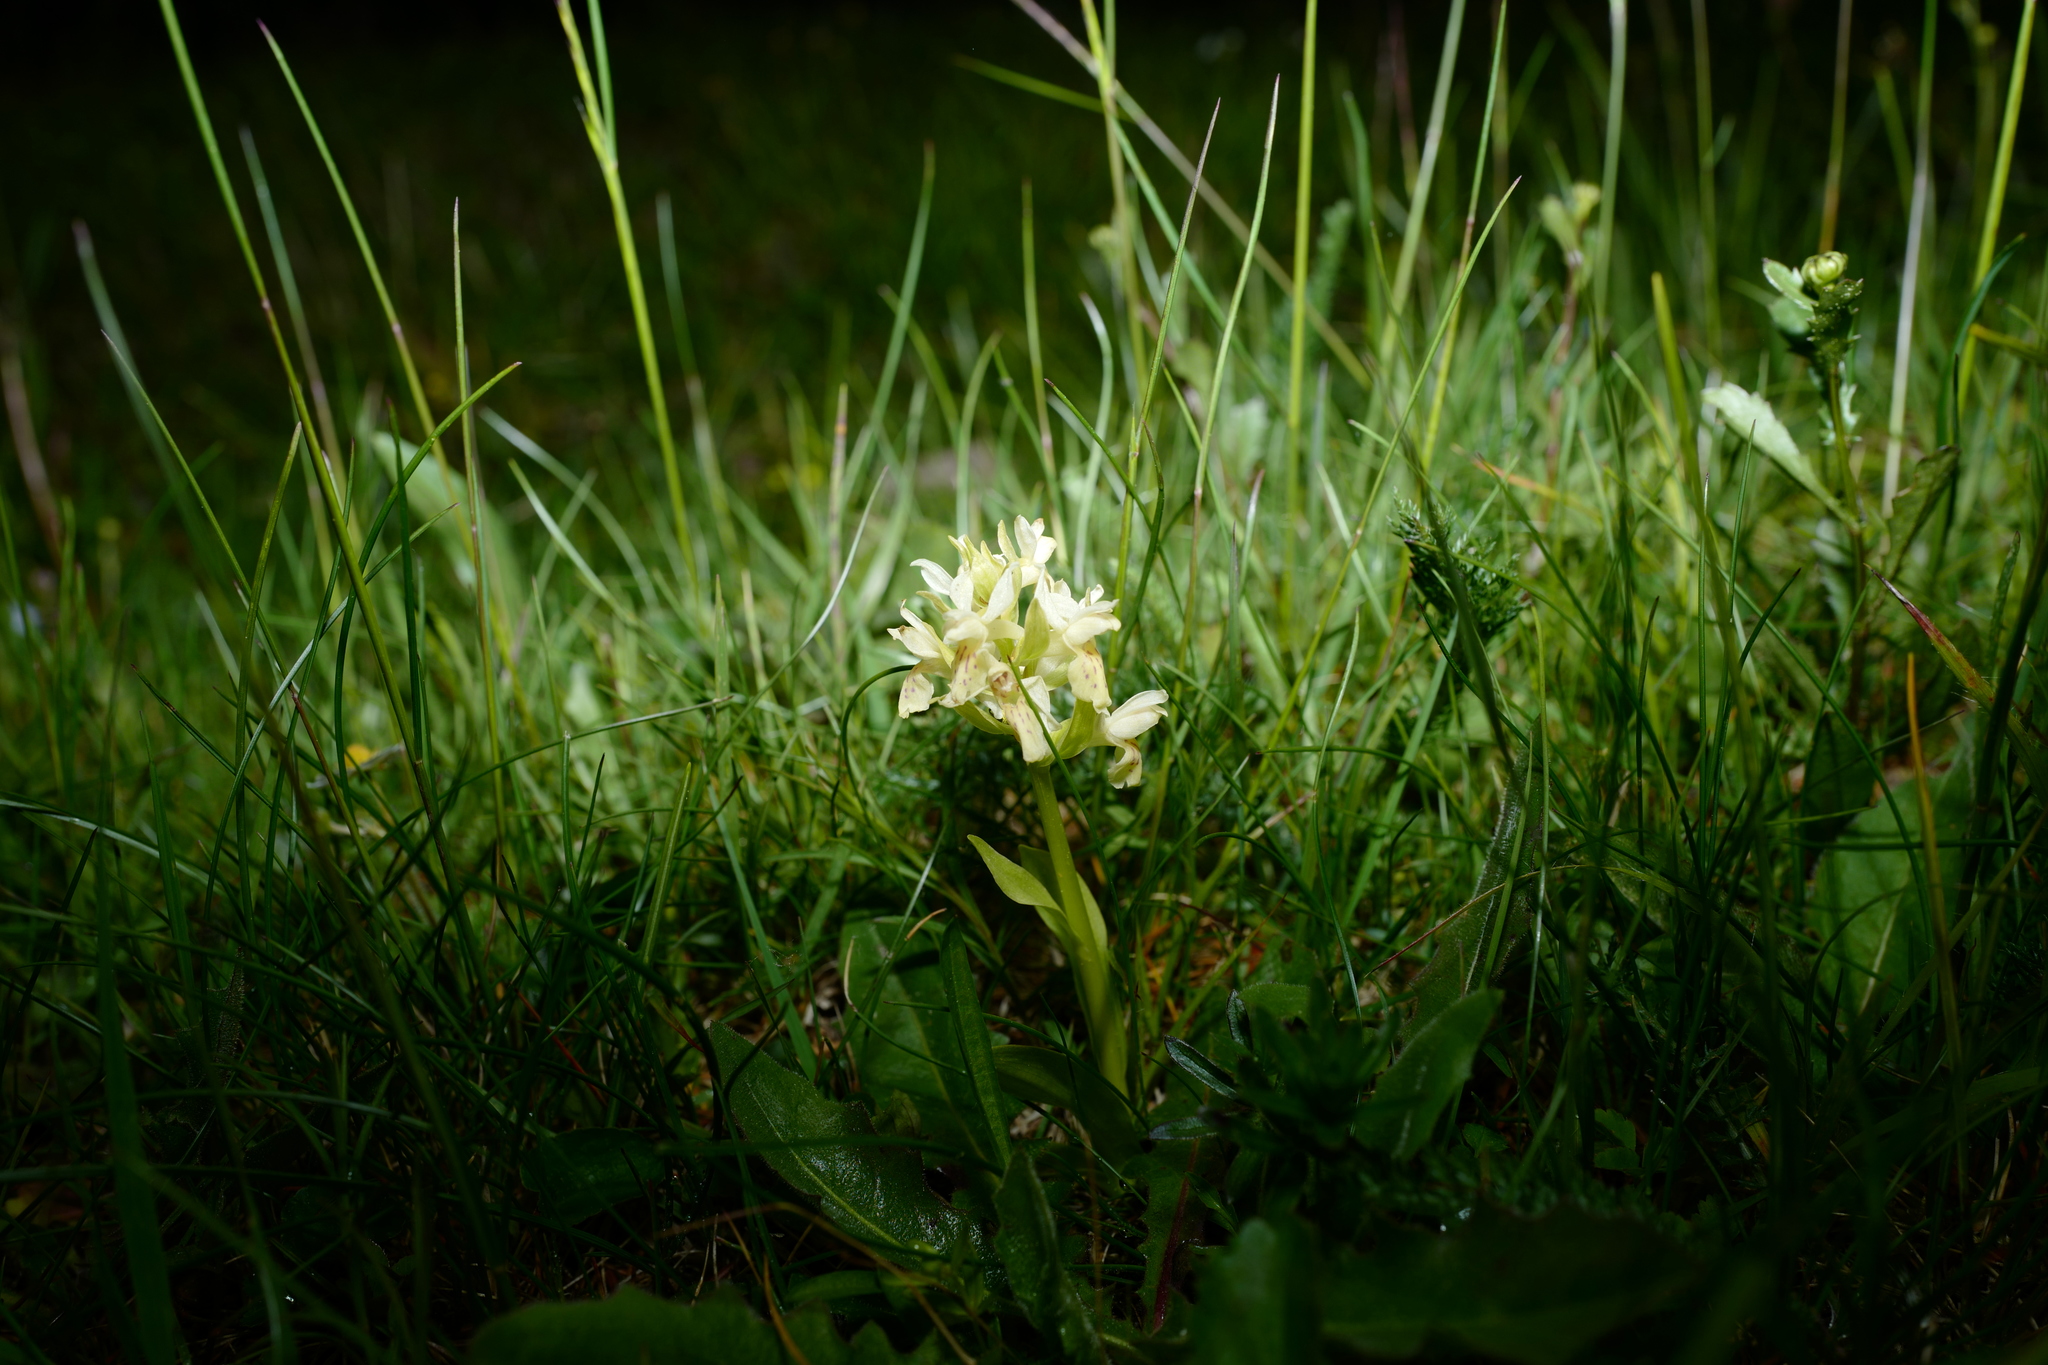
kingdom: Plantae
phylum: Tracheophyta
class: Liliopsida
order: Asparagales
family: Orchidaceae
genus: Dactylorhiza
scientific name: Dactylorhiza sambucina
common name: Elder-flowered orchid
